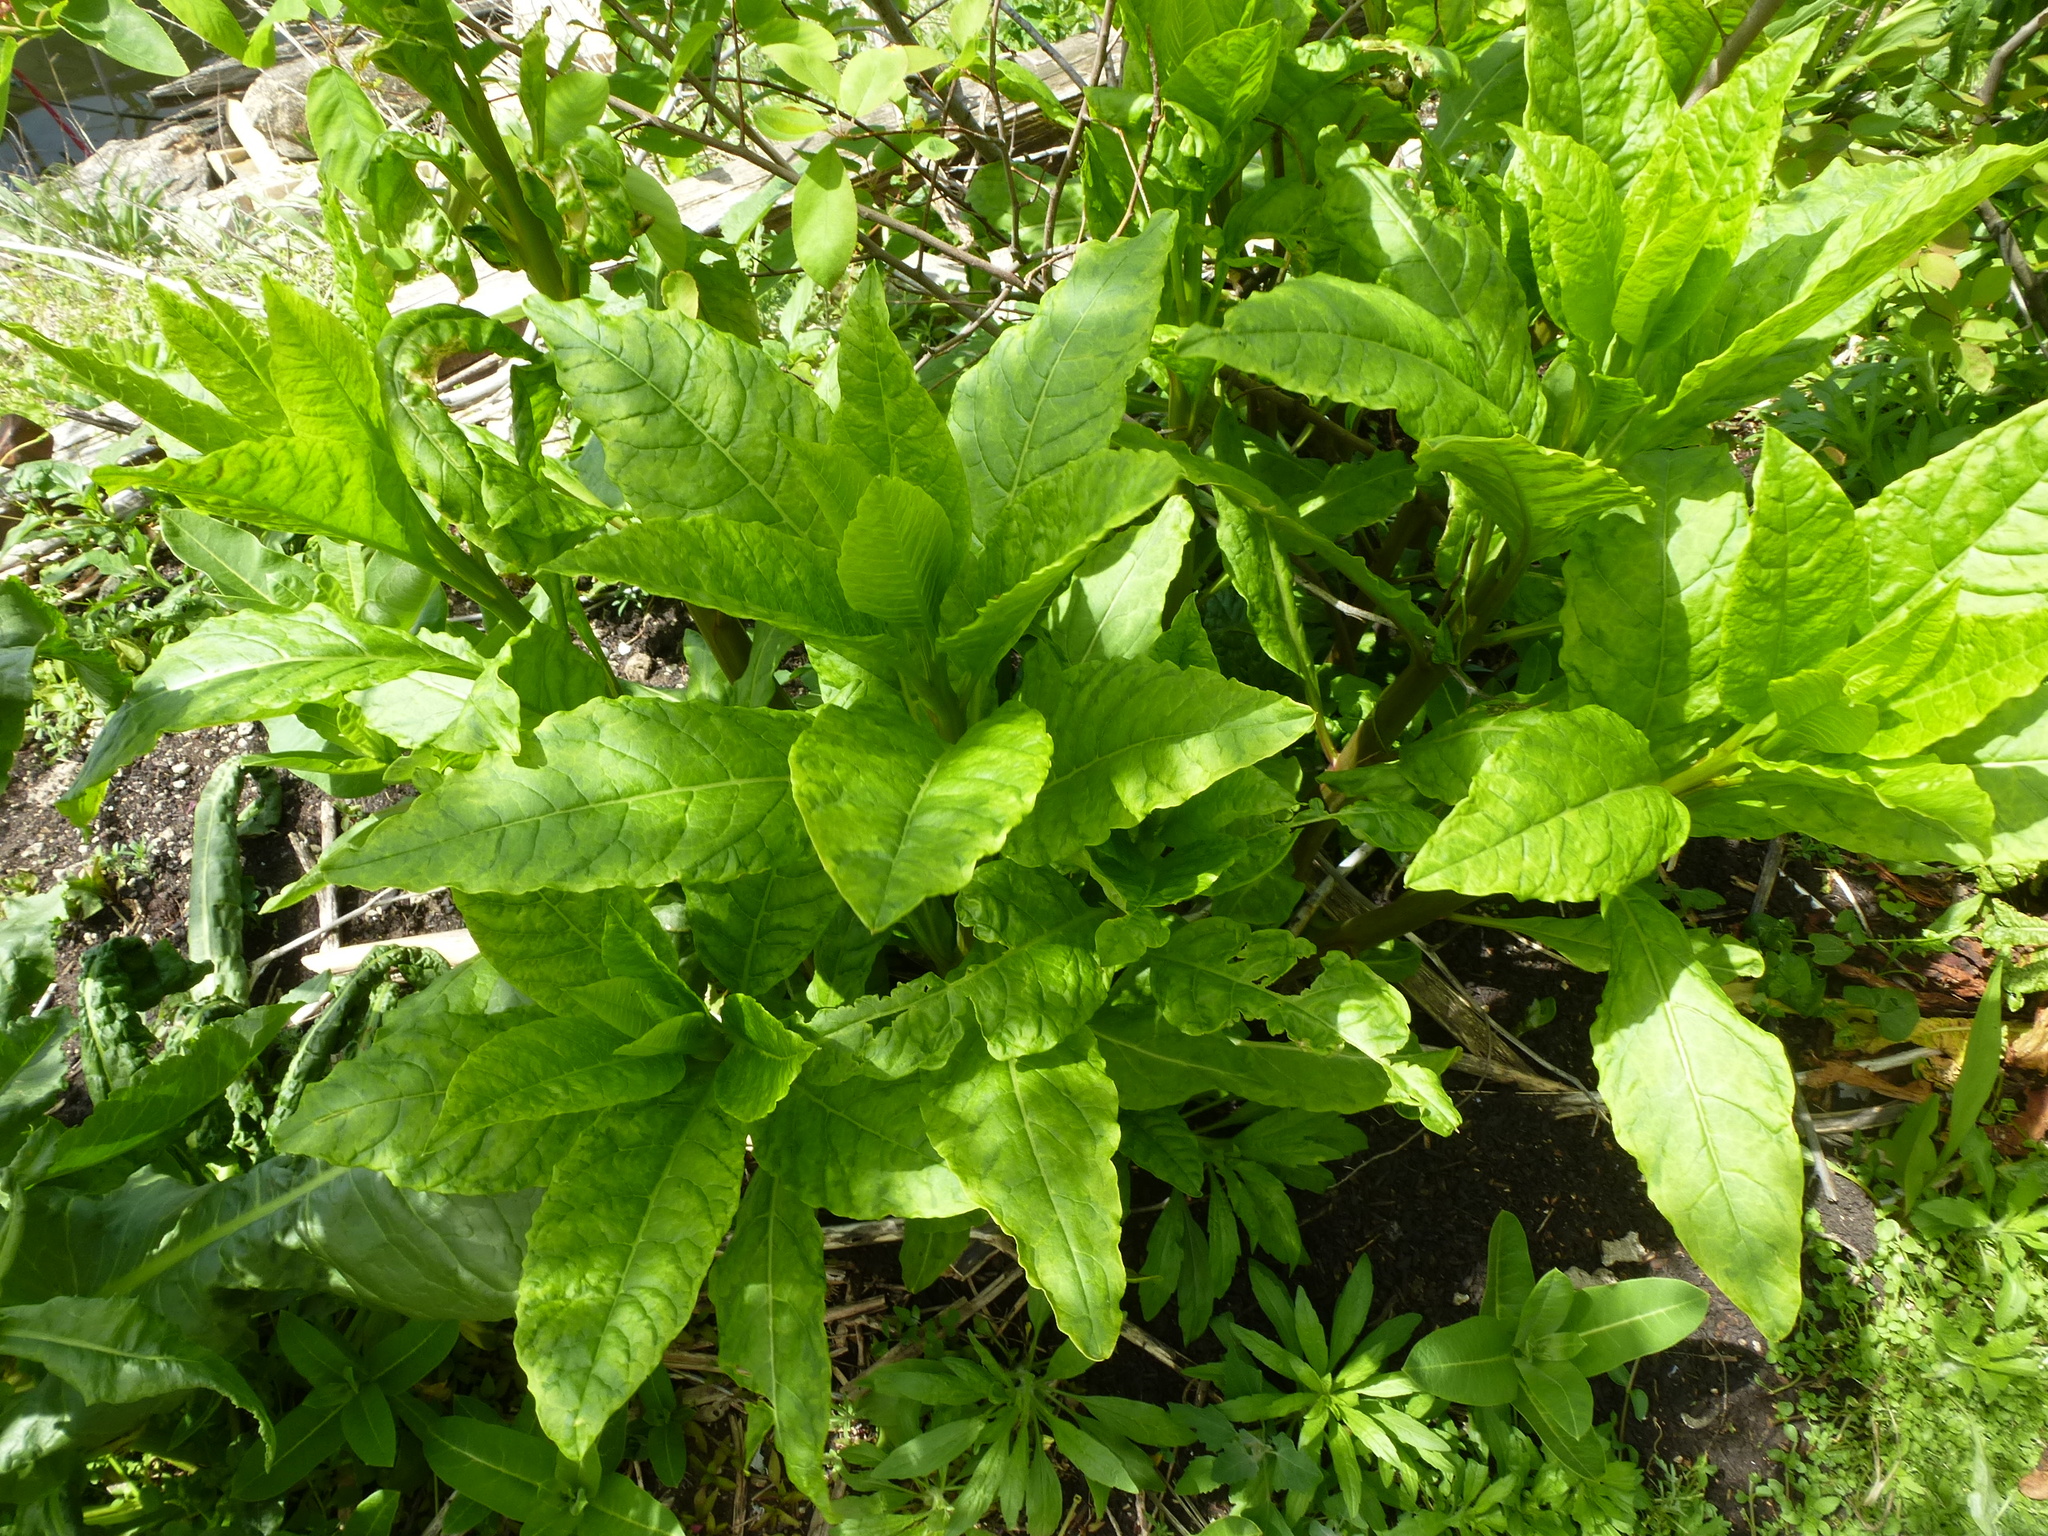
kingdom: Plantae
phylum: Tracheophyta
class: Magnoliopsida
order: Caryophyllales
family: Phytolaccaceae
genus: Phytolacca
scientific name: Phytolacca americana
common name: American pokeweed
